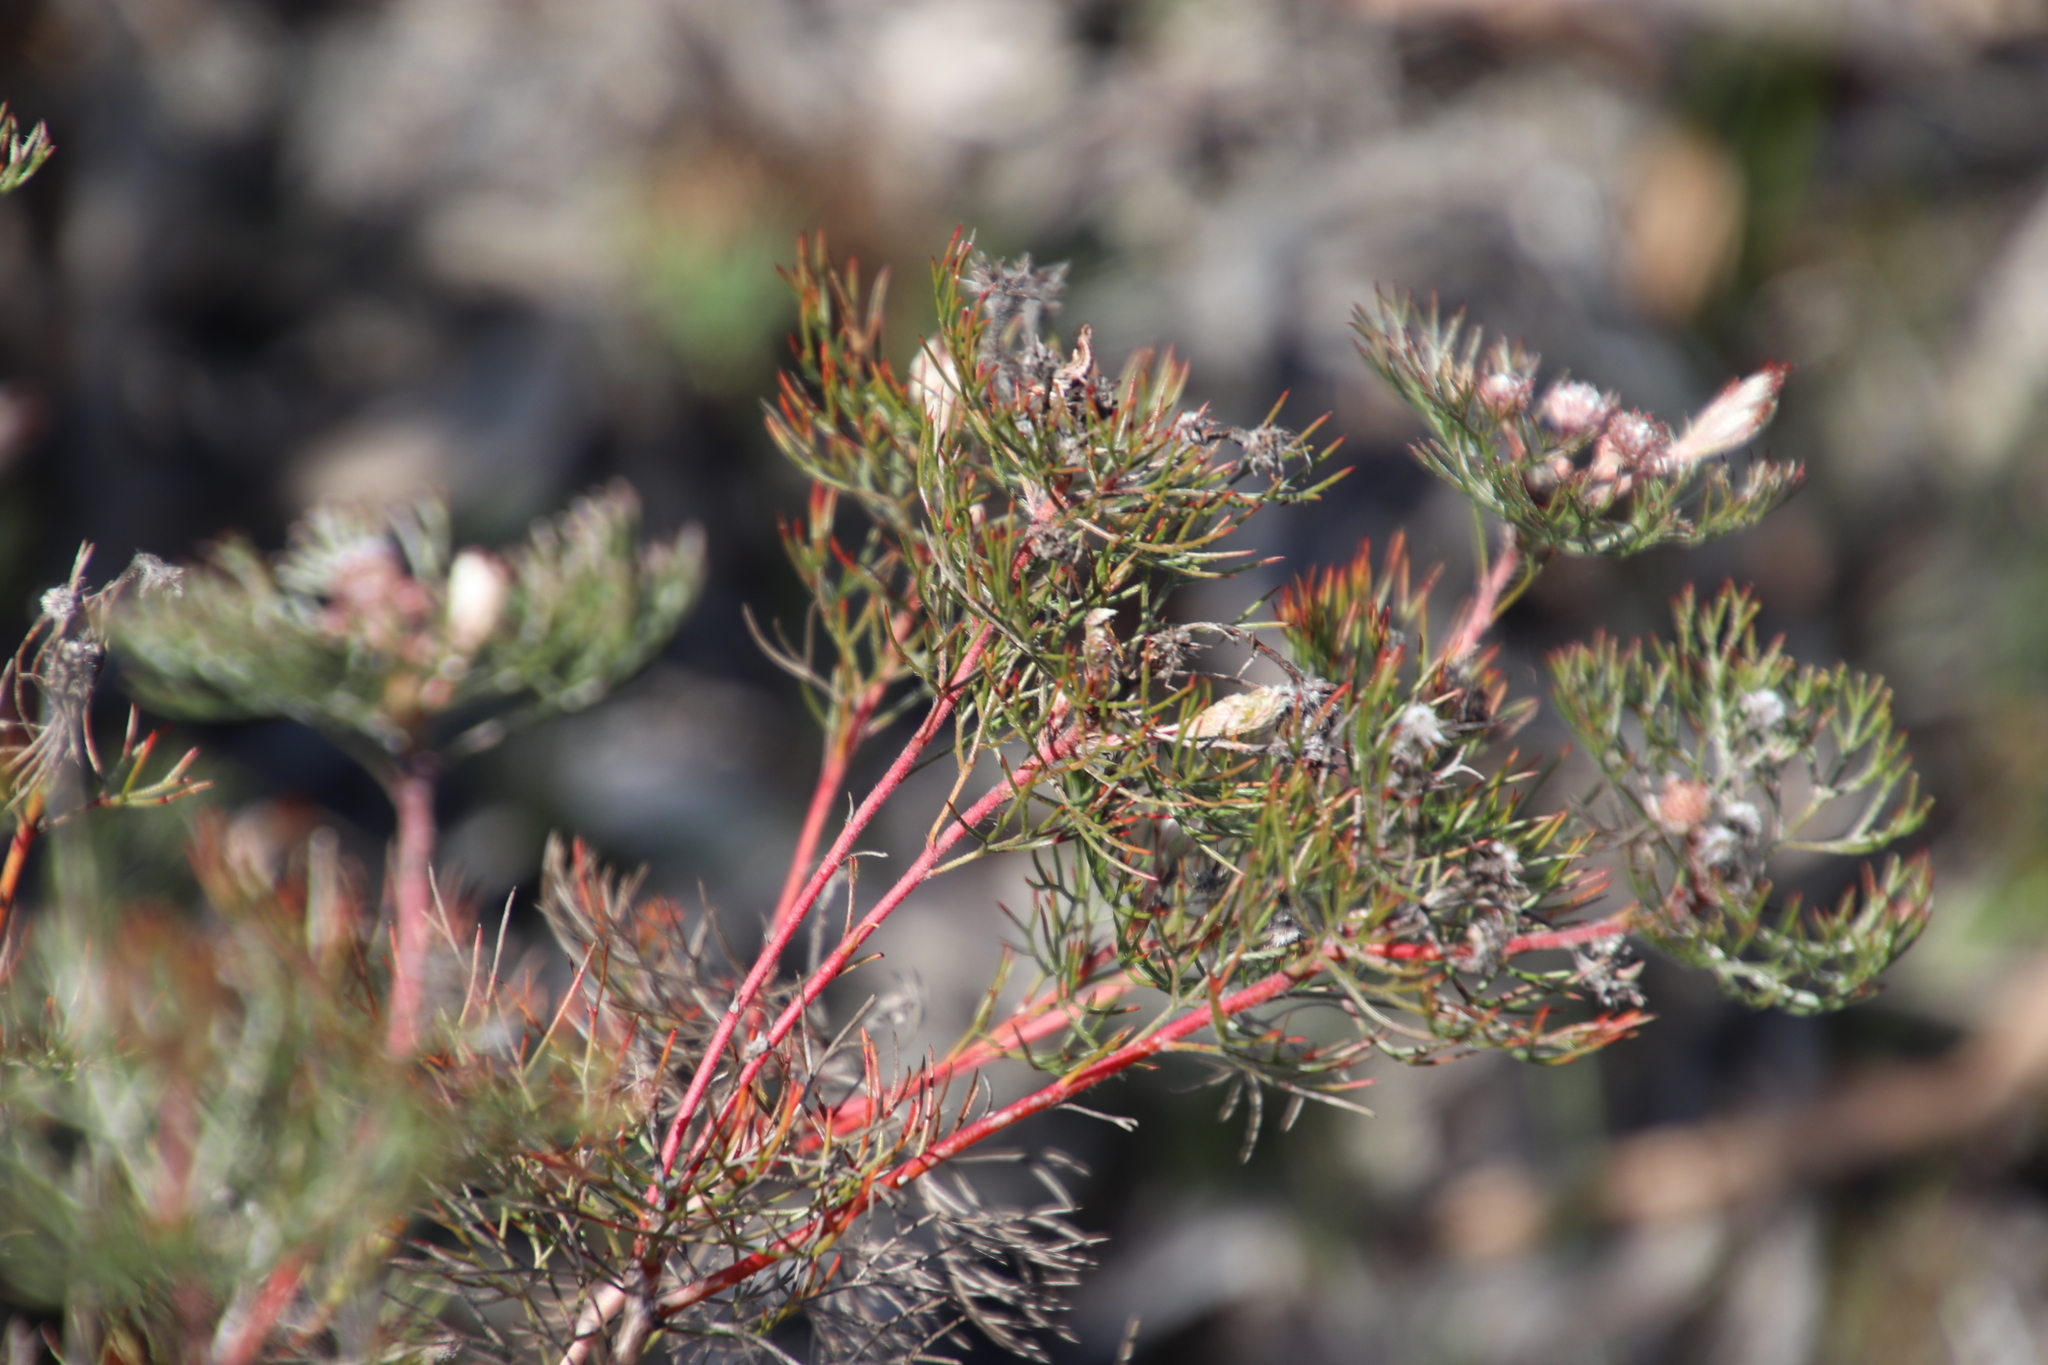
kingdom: Plantae
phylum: Tracheophyta
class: Magnoliopsida
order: Proteales
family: Proteaceae
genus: Serruria
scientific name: Serruria fasciflora
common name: Common pin spiderhead
